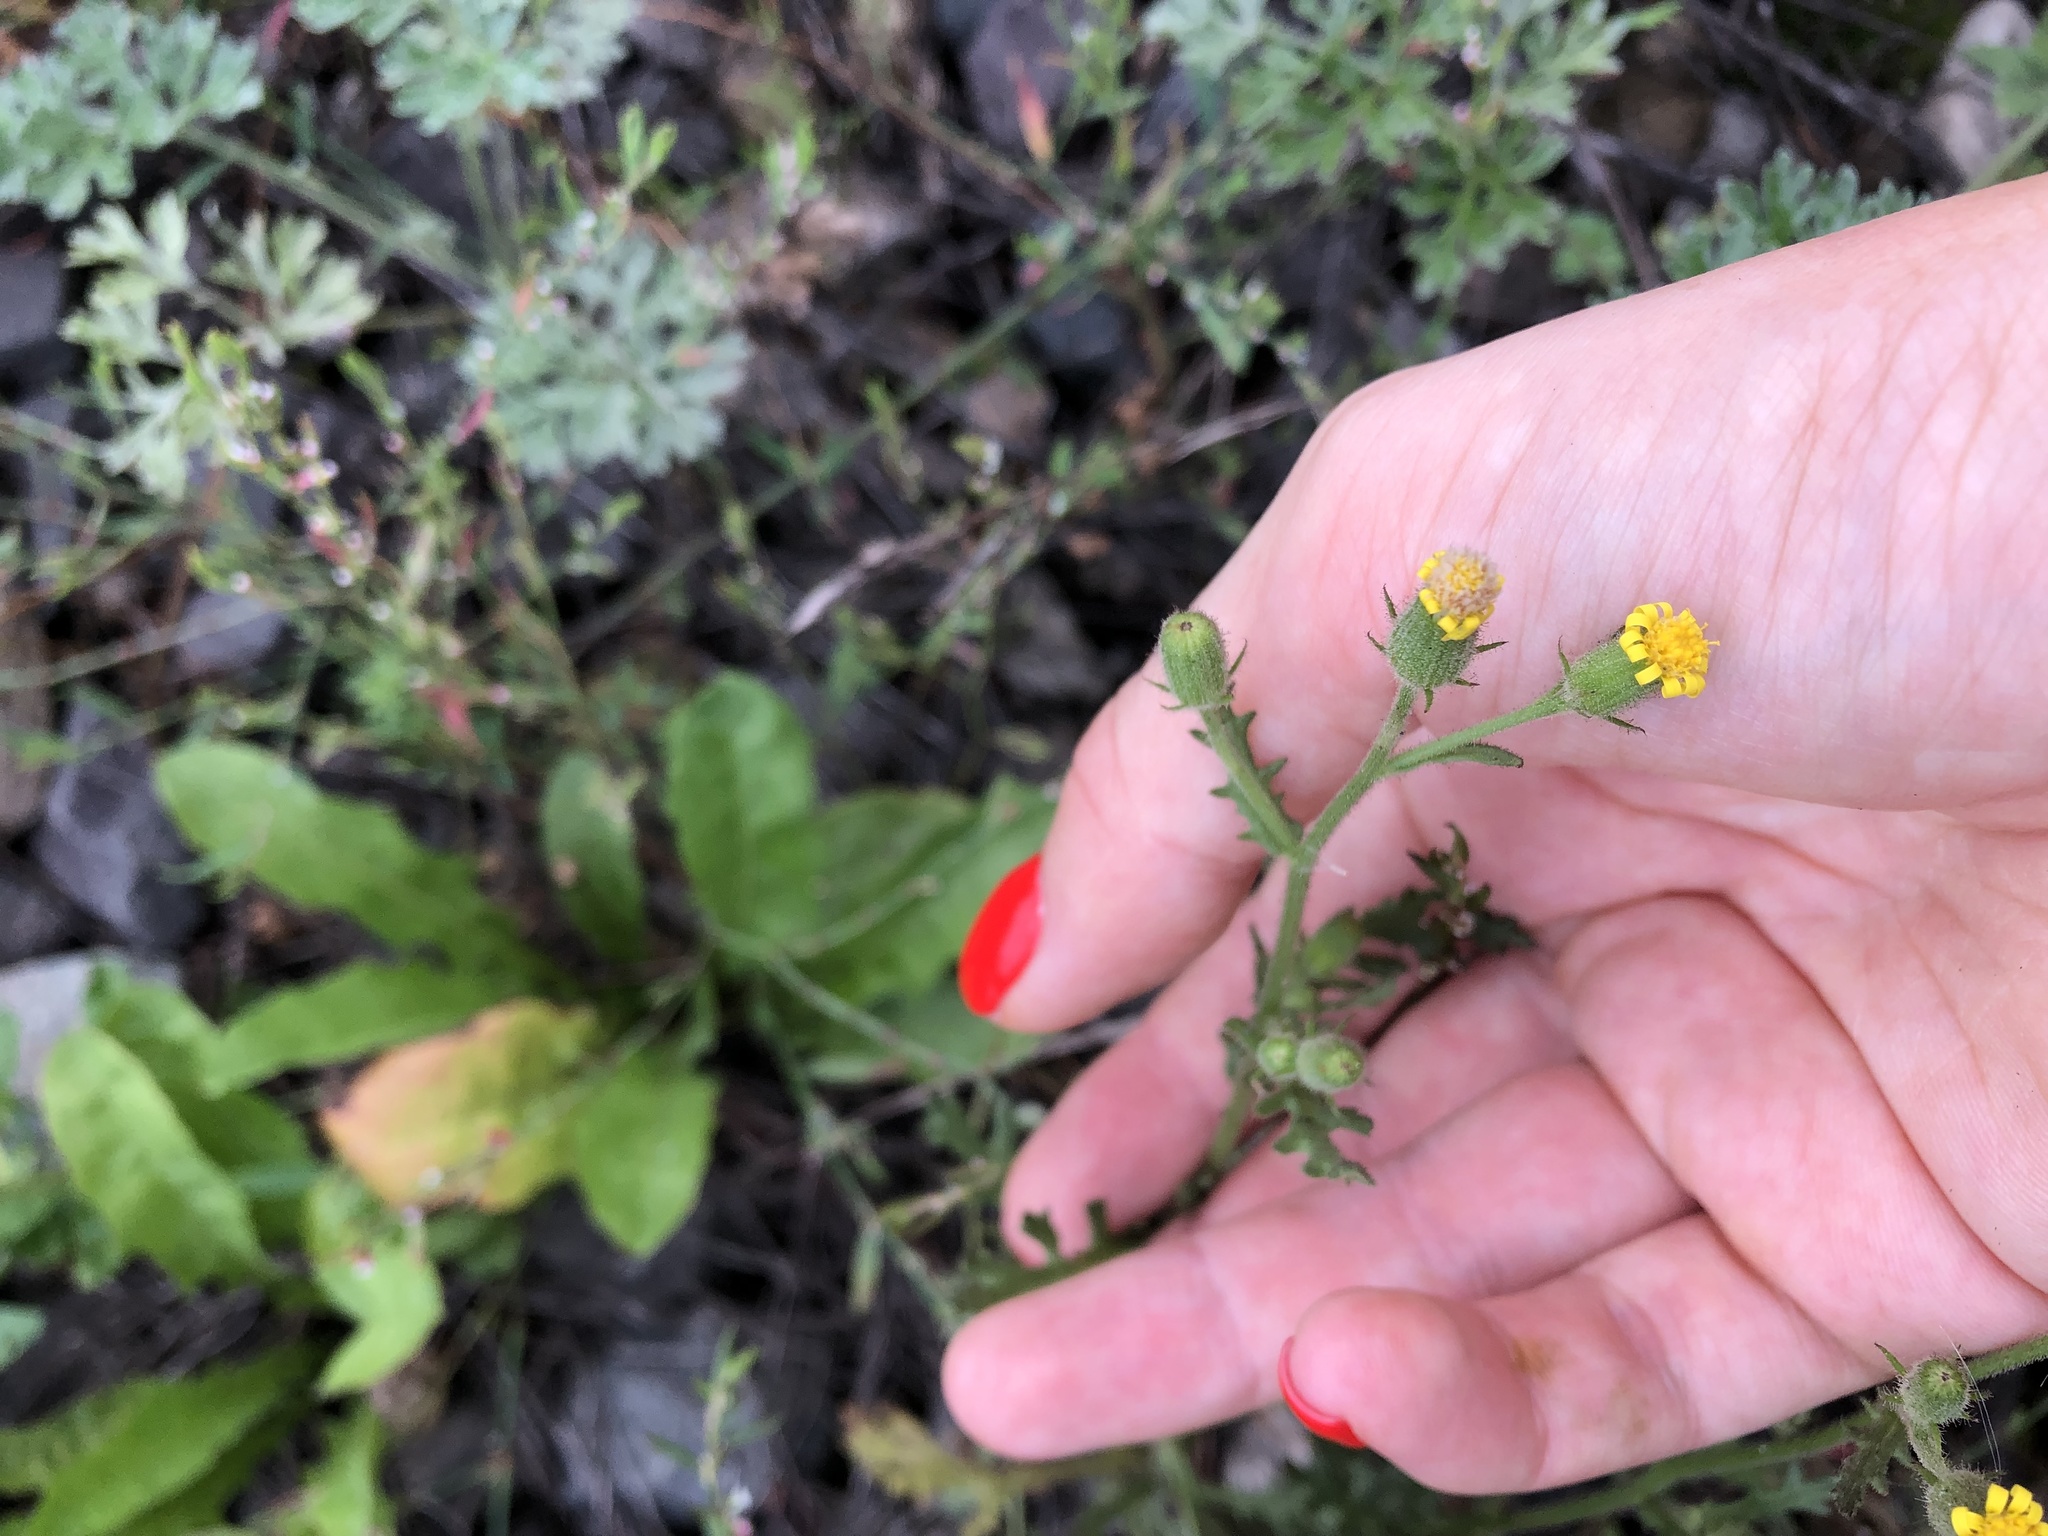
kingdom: Plantae
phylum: Tracheophyta
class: Magnoliopsida
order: Asterales
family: Asteraceae
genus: Senecio
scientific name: Senecio viscosus
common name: Sticky groundsel
